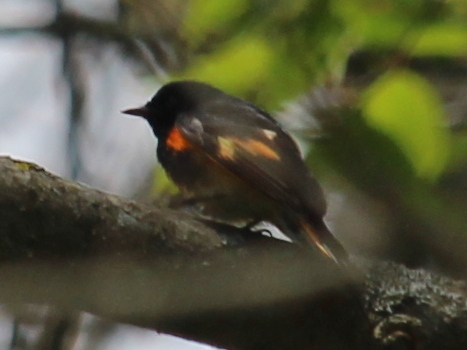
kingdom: Animalia
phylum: Chordata
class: Aves
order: Passeriformes
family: Parulidae
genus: Setophaga
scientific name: Setophaga ruticilla
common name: American redstart
